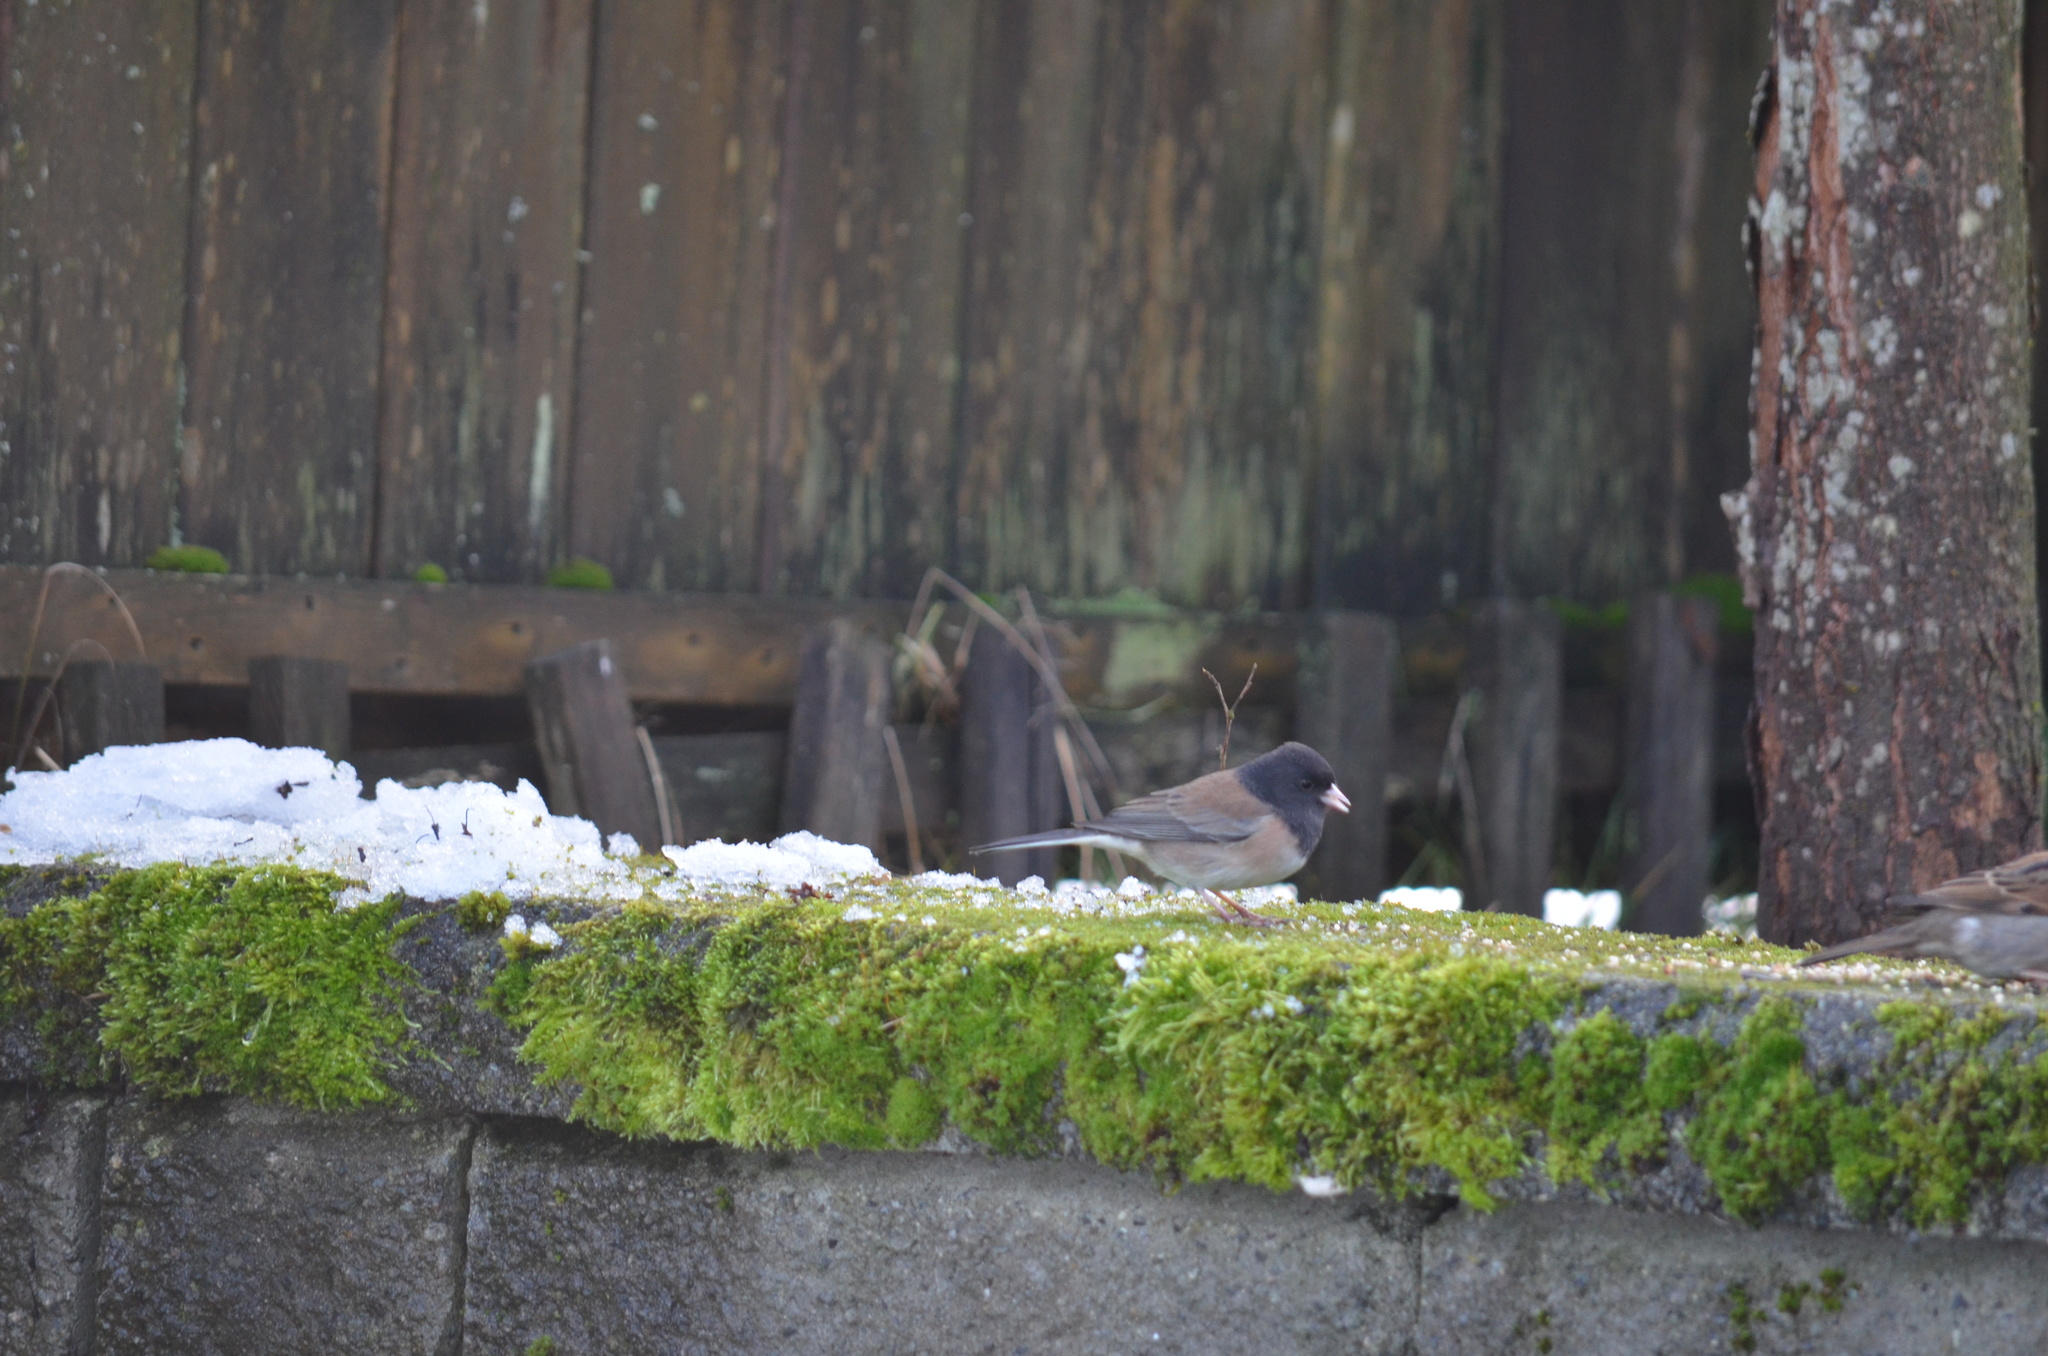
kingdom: Animalia
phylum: Chordata
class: Aves
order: Passeriformes
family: Passerellidae
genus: Junco
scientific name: Junco hyemalis
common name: Dark-eyed junco
